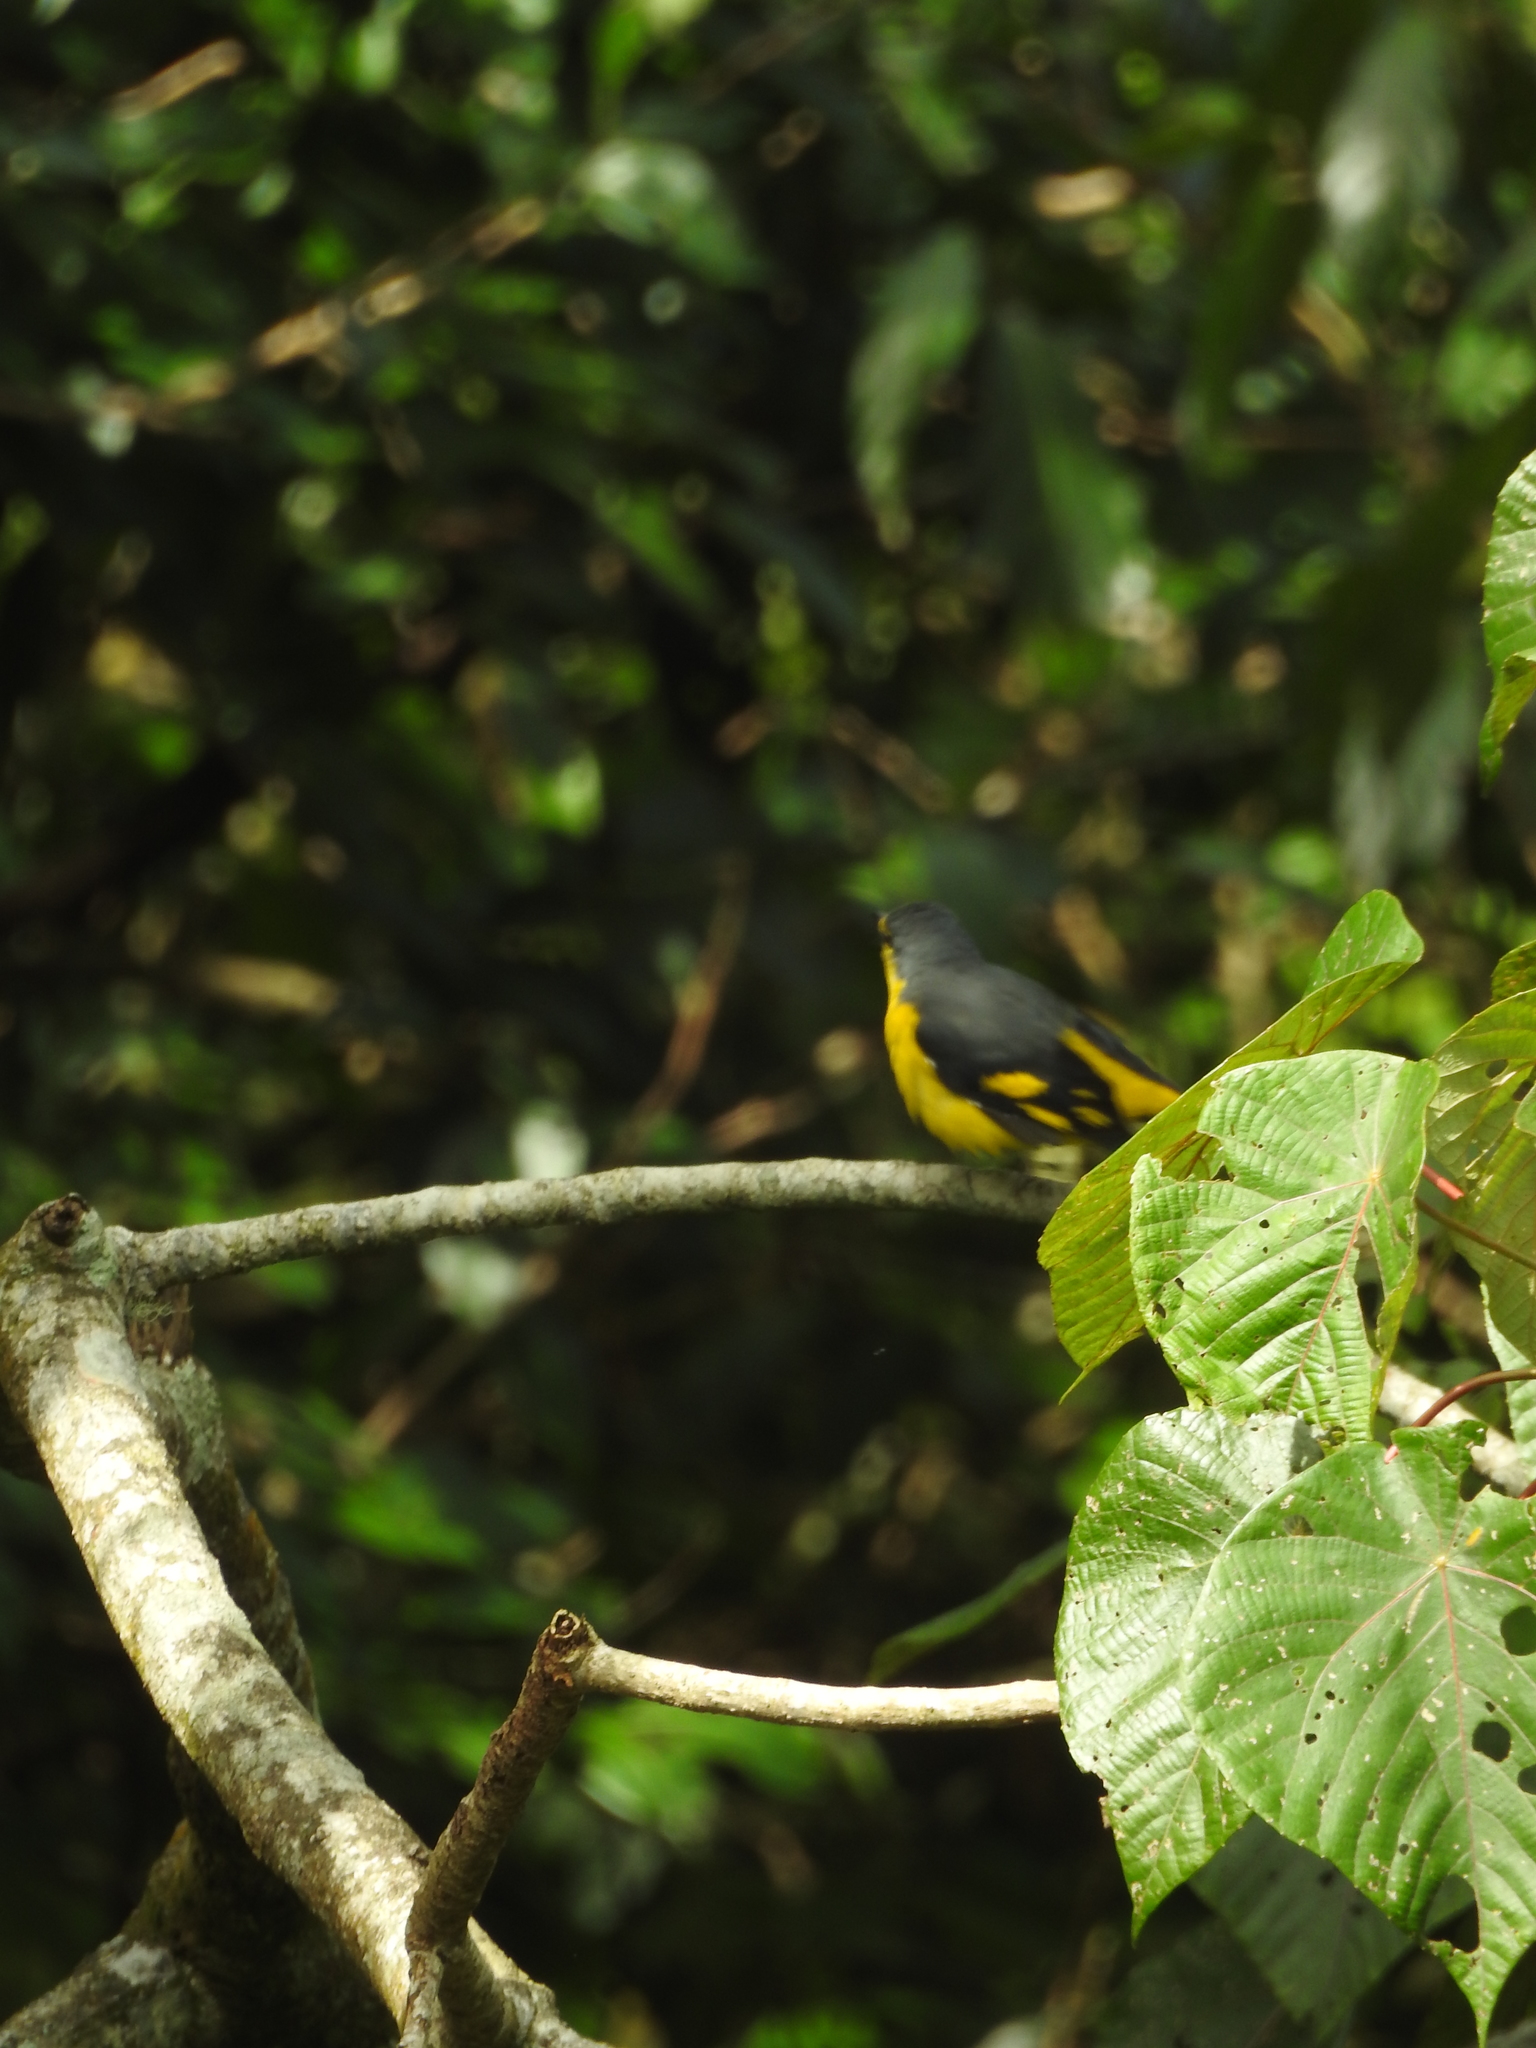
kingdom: Animalia
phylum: Chordata
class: Aves
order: Passeriformes
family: Campephagidae
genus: Pericrocotus
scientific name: Pericrocotus flammeus
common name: Orange minivet
